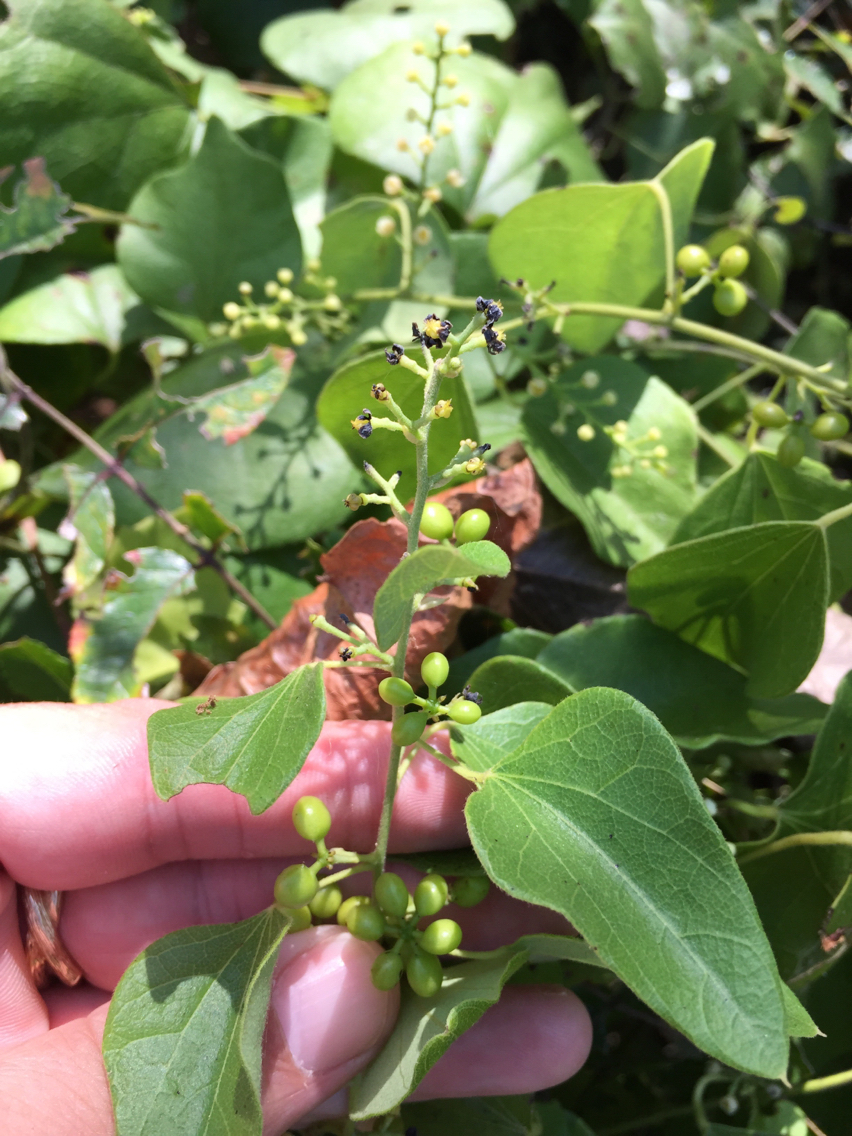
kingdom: Plantae
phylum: Tracheophyta
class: Magnoliopsida
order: Ranunculales
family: Menispermaceae
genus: Cocculus
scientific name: Cocculus carolinus
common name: Carolina moonseed
